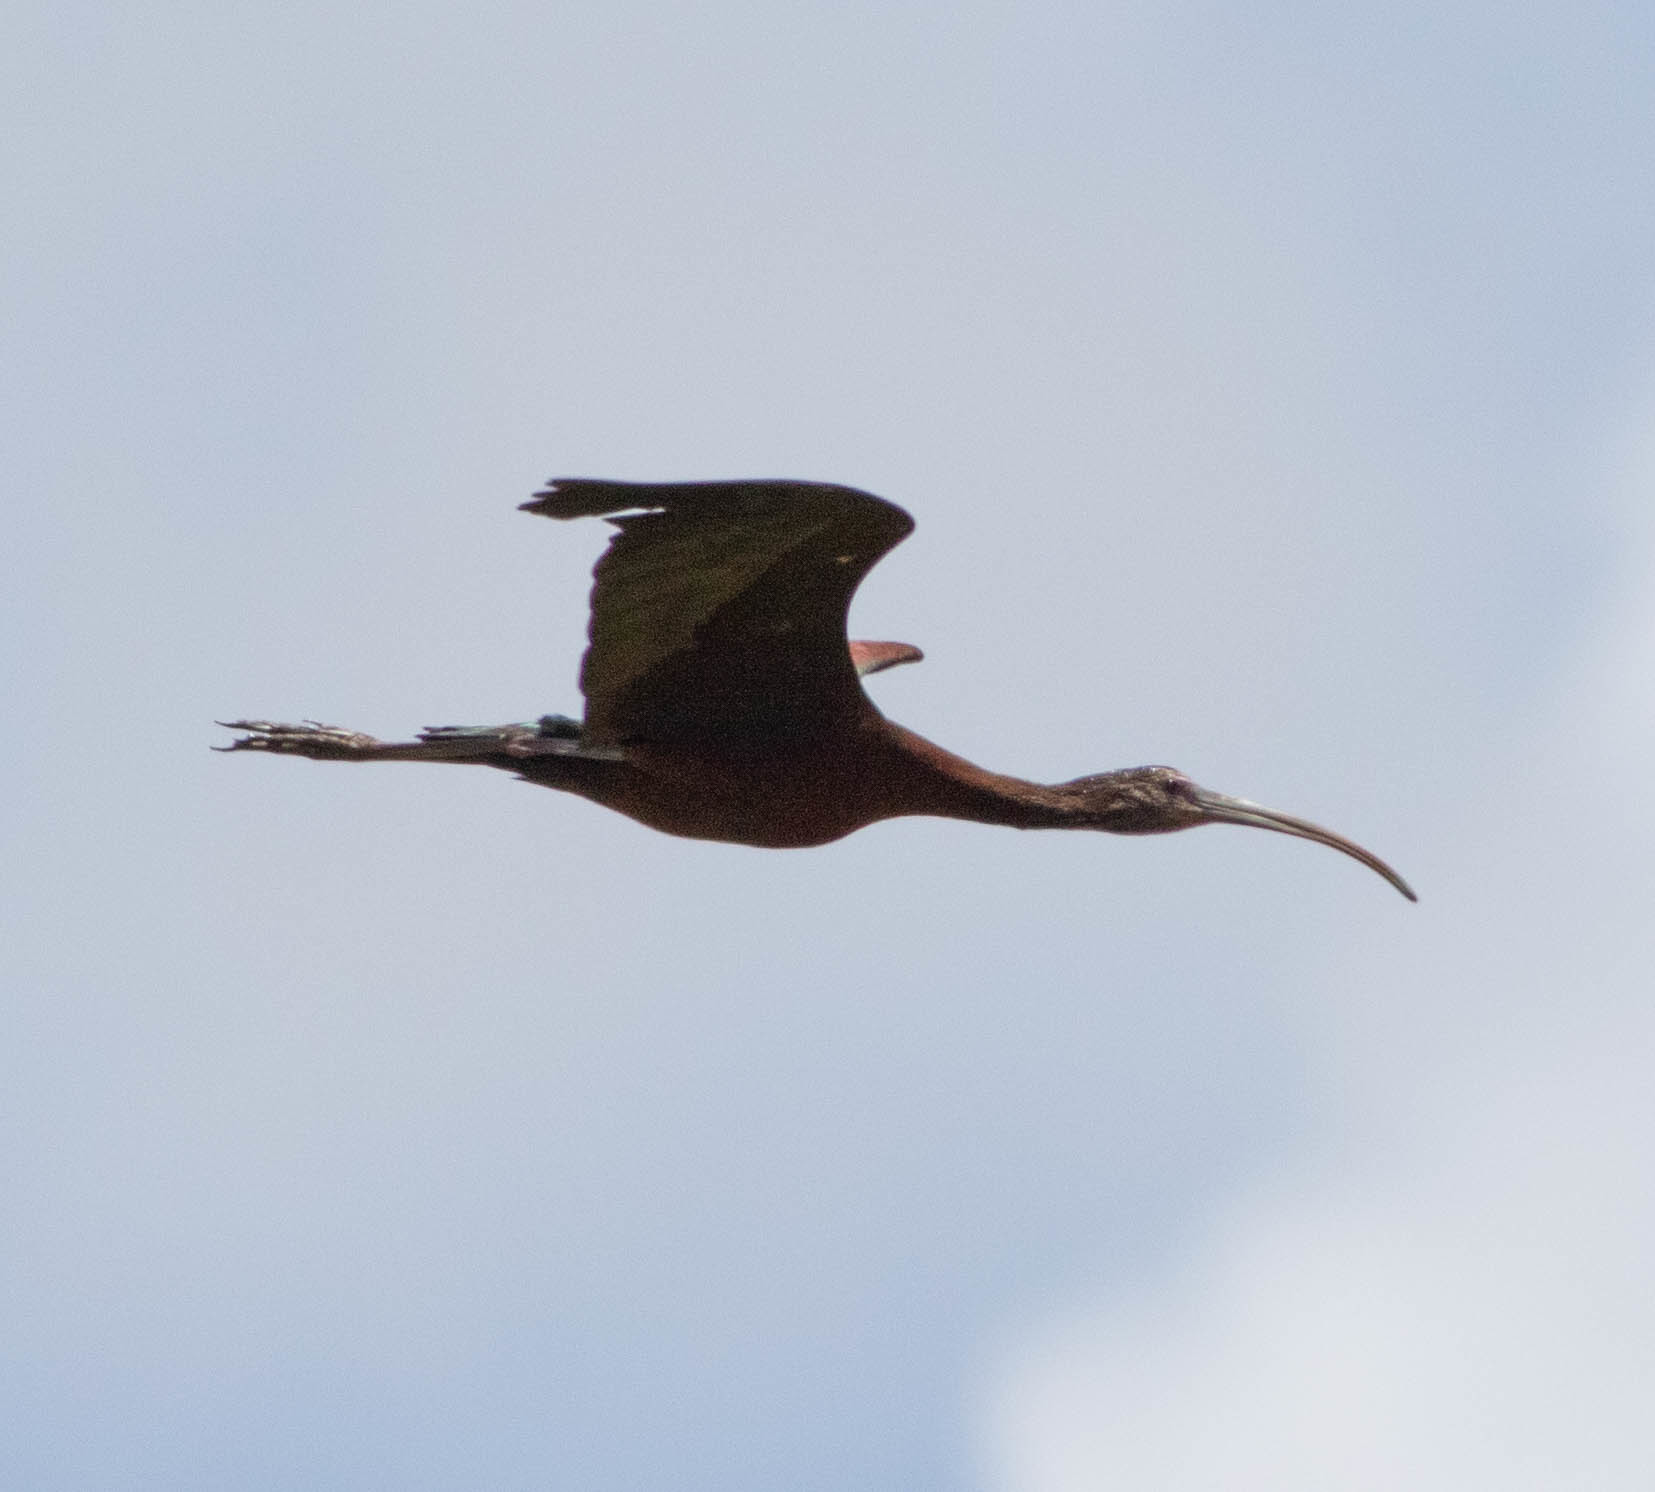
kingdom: Animalia
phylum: Chordata
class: Aves
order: Pelecaniformes
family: Threskiornithidae
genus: Plegadis
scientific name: Plegadis
